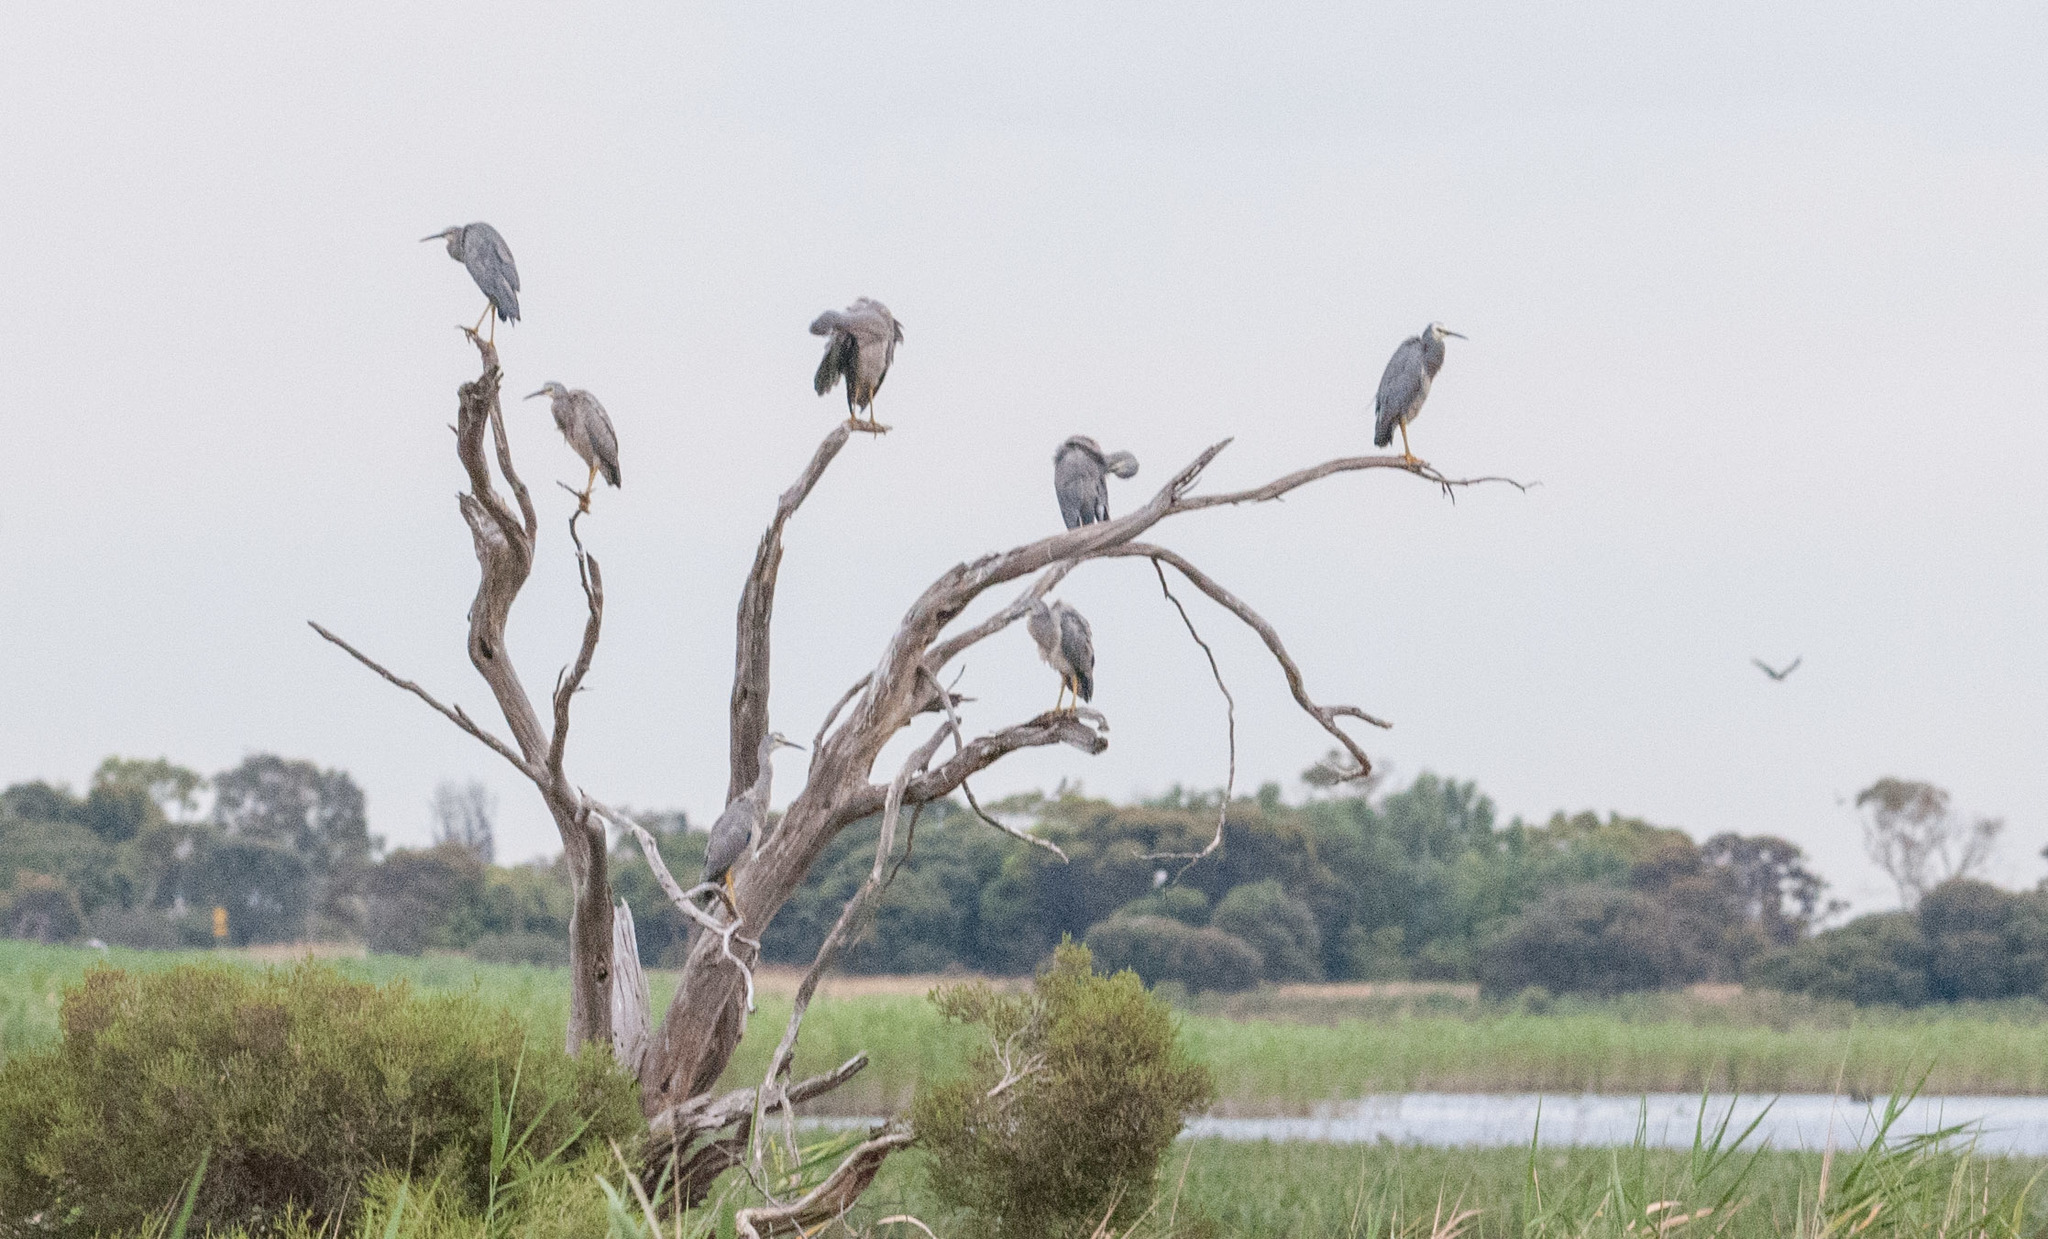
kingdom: Animalia
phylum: Chordata
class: Aves
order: Pelecaniformes
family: Ardeidae
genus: Egretta
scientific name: Egretta novaehollandiae
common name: White-faced heron
